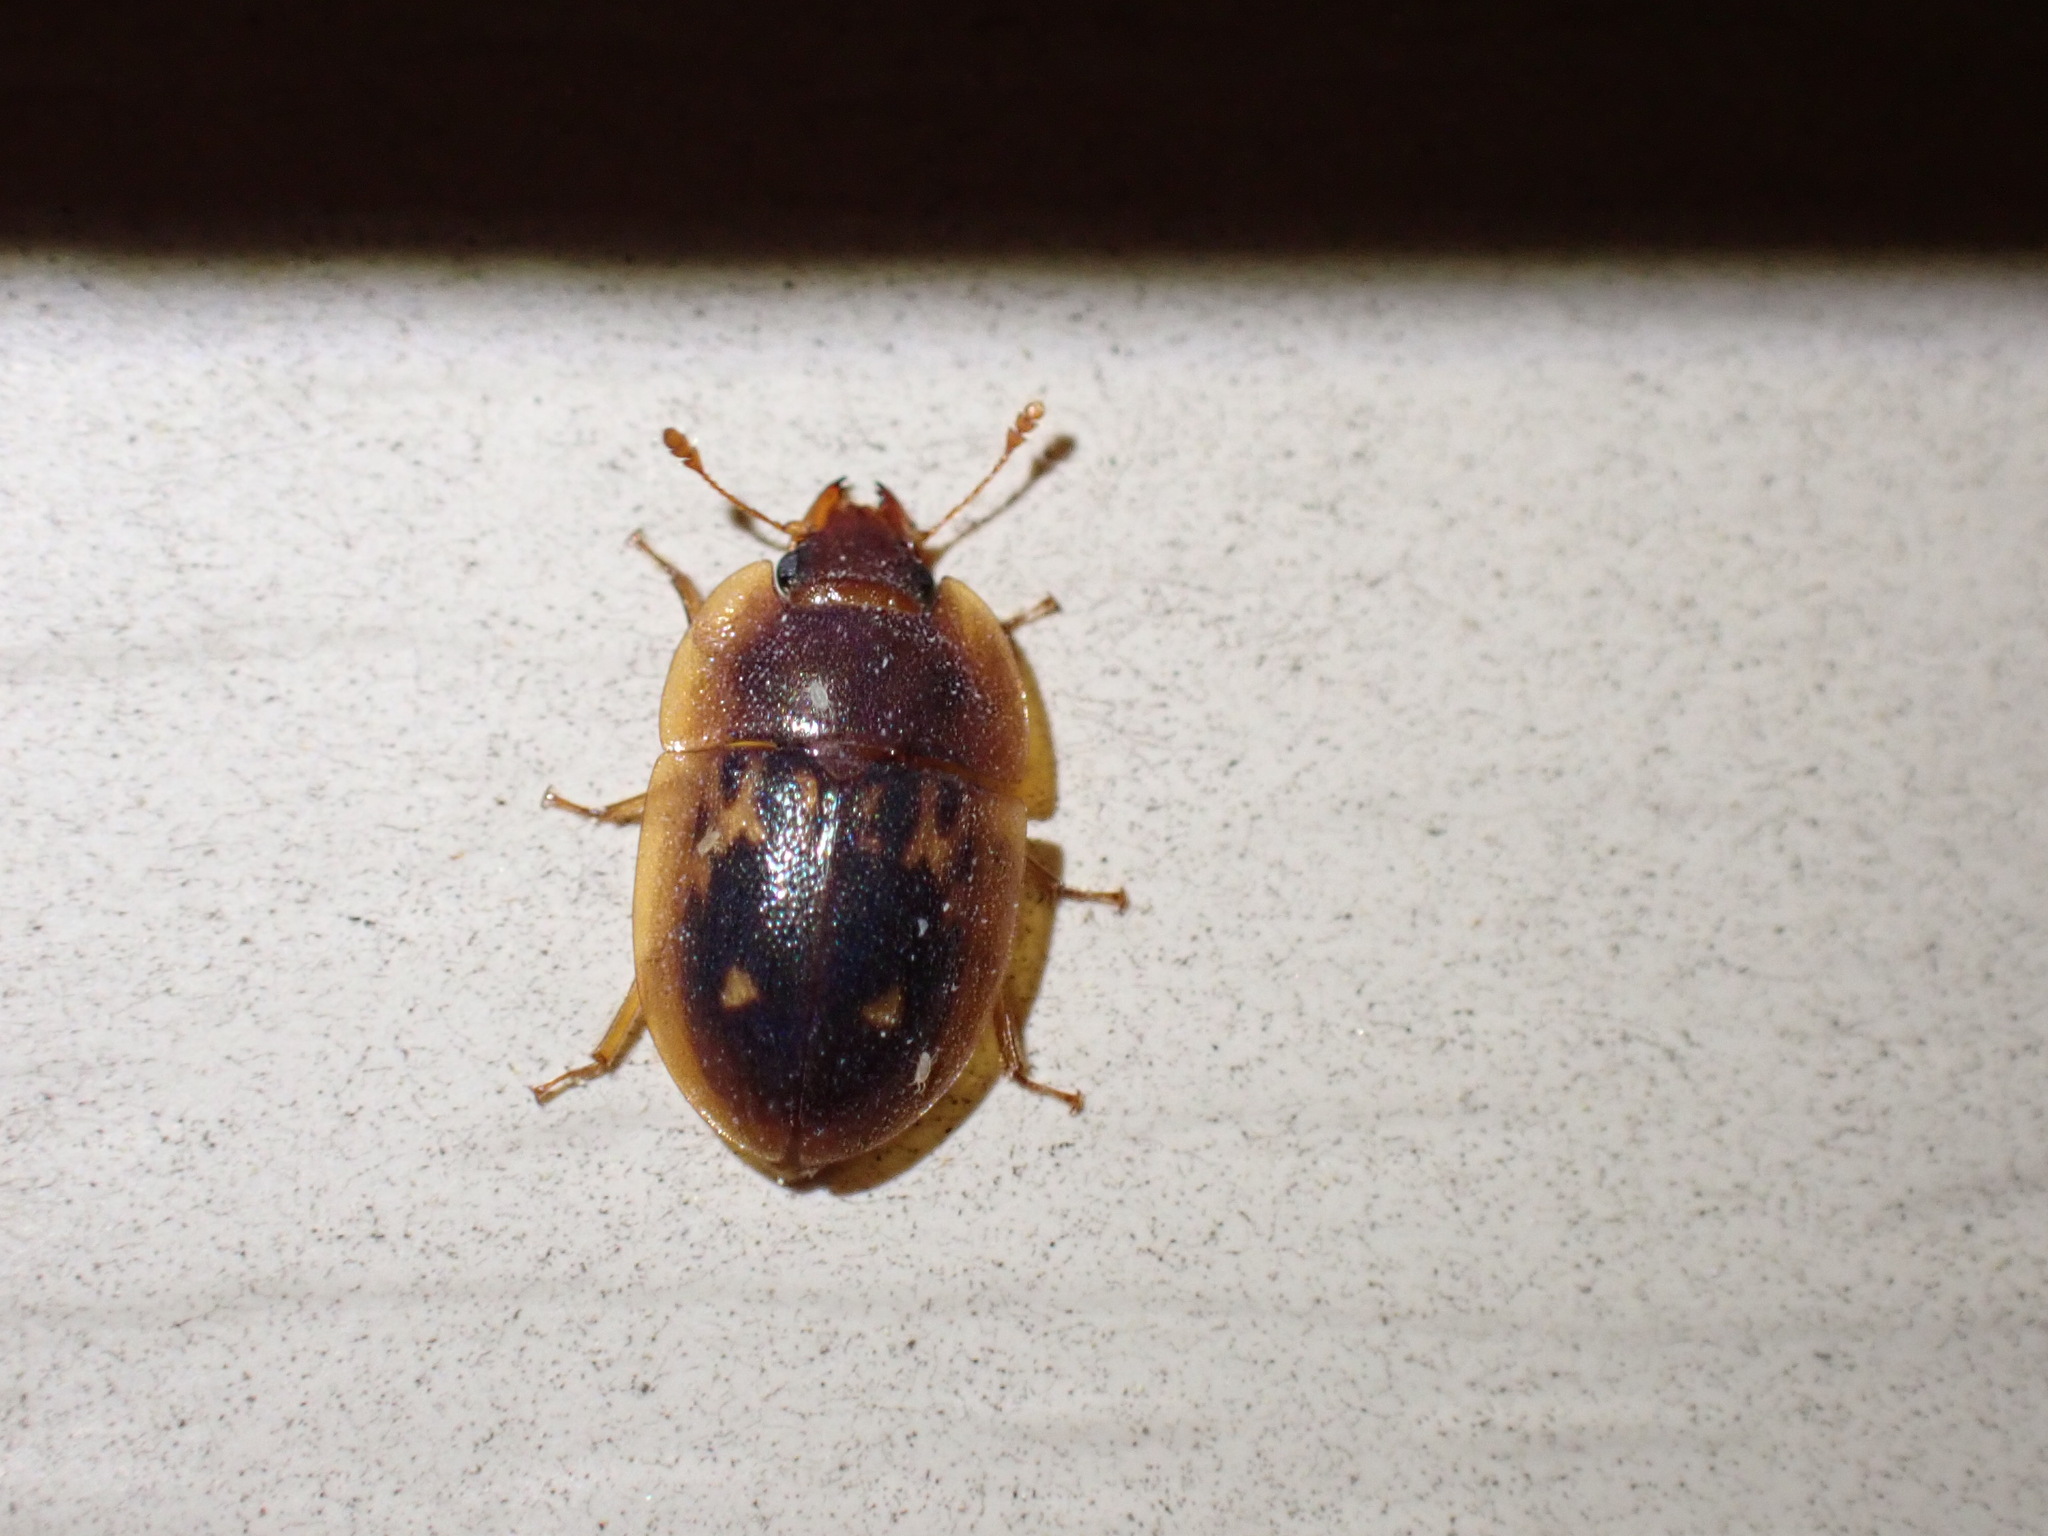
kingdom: Animalia
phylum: Arthropoda
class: Insecta
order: Coleoptera
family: Nitidulidae
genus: Prometopia
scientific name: Prometopia sexmaculata
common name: Six-spotted sap-feeding beetle
